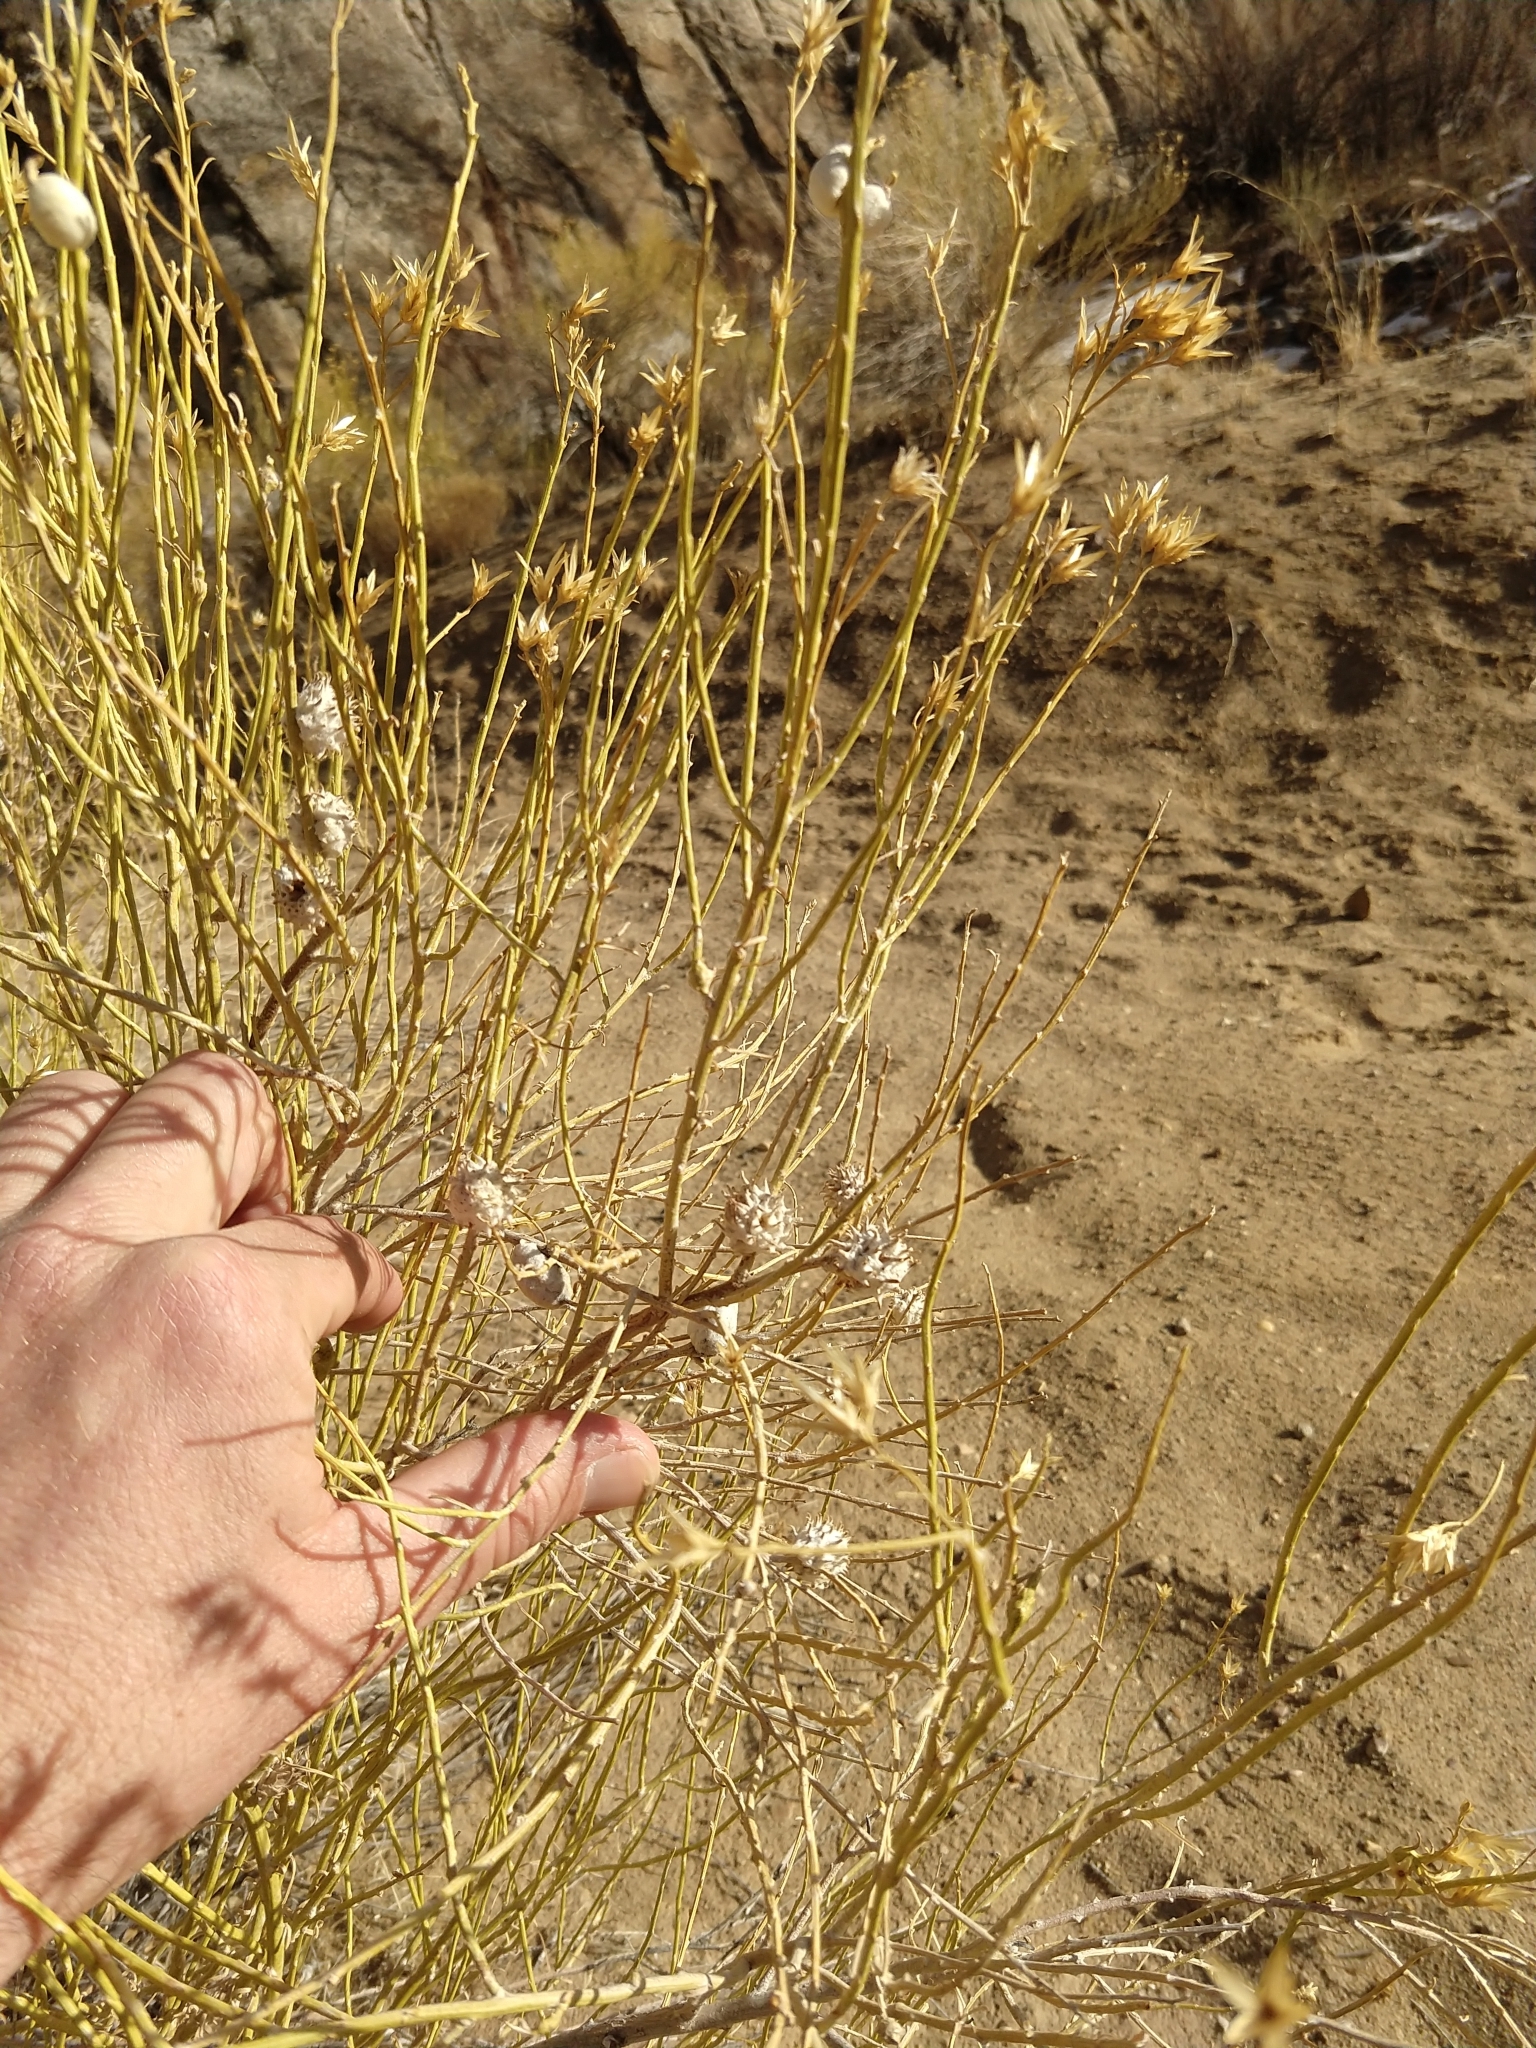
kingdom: Animalia
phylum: Arthropoda
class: Insecta
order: Diptera
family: Cecidomyiidae
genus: Rhopalomyia
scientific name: Rhopalomyia utahensis
